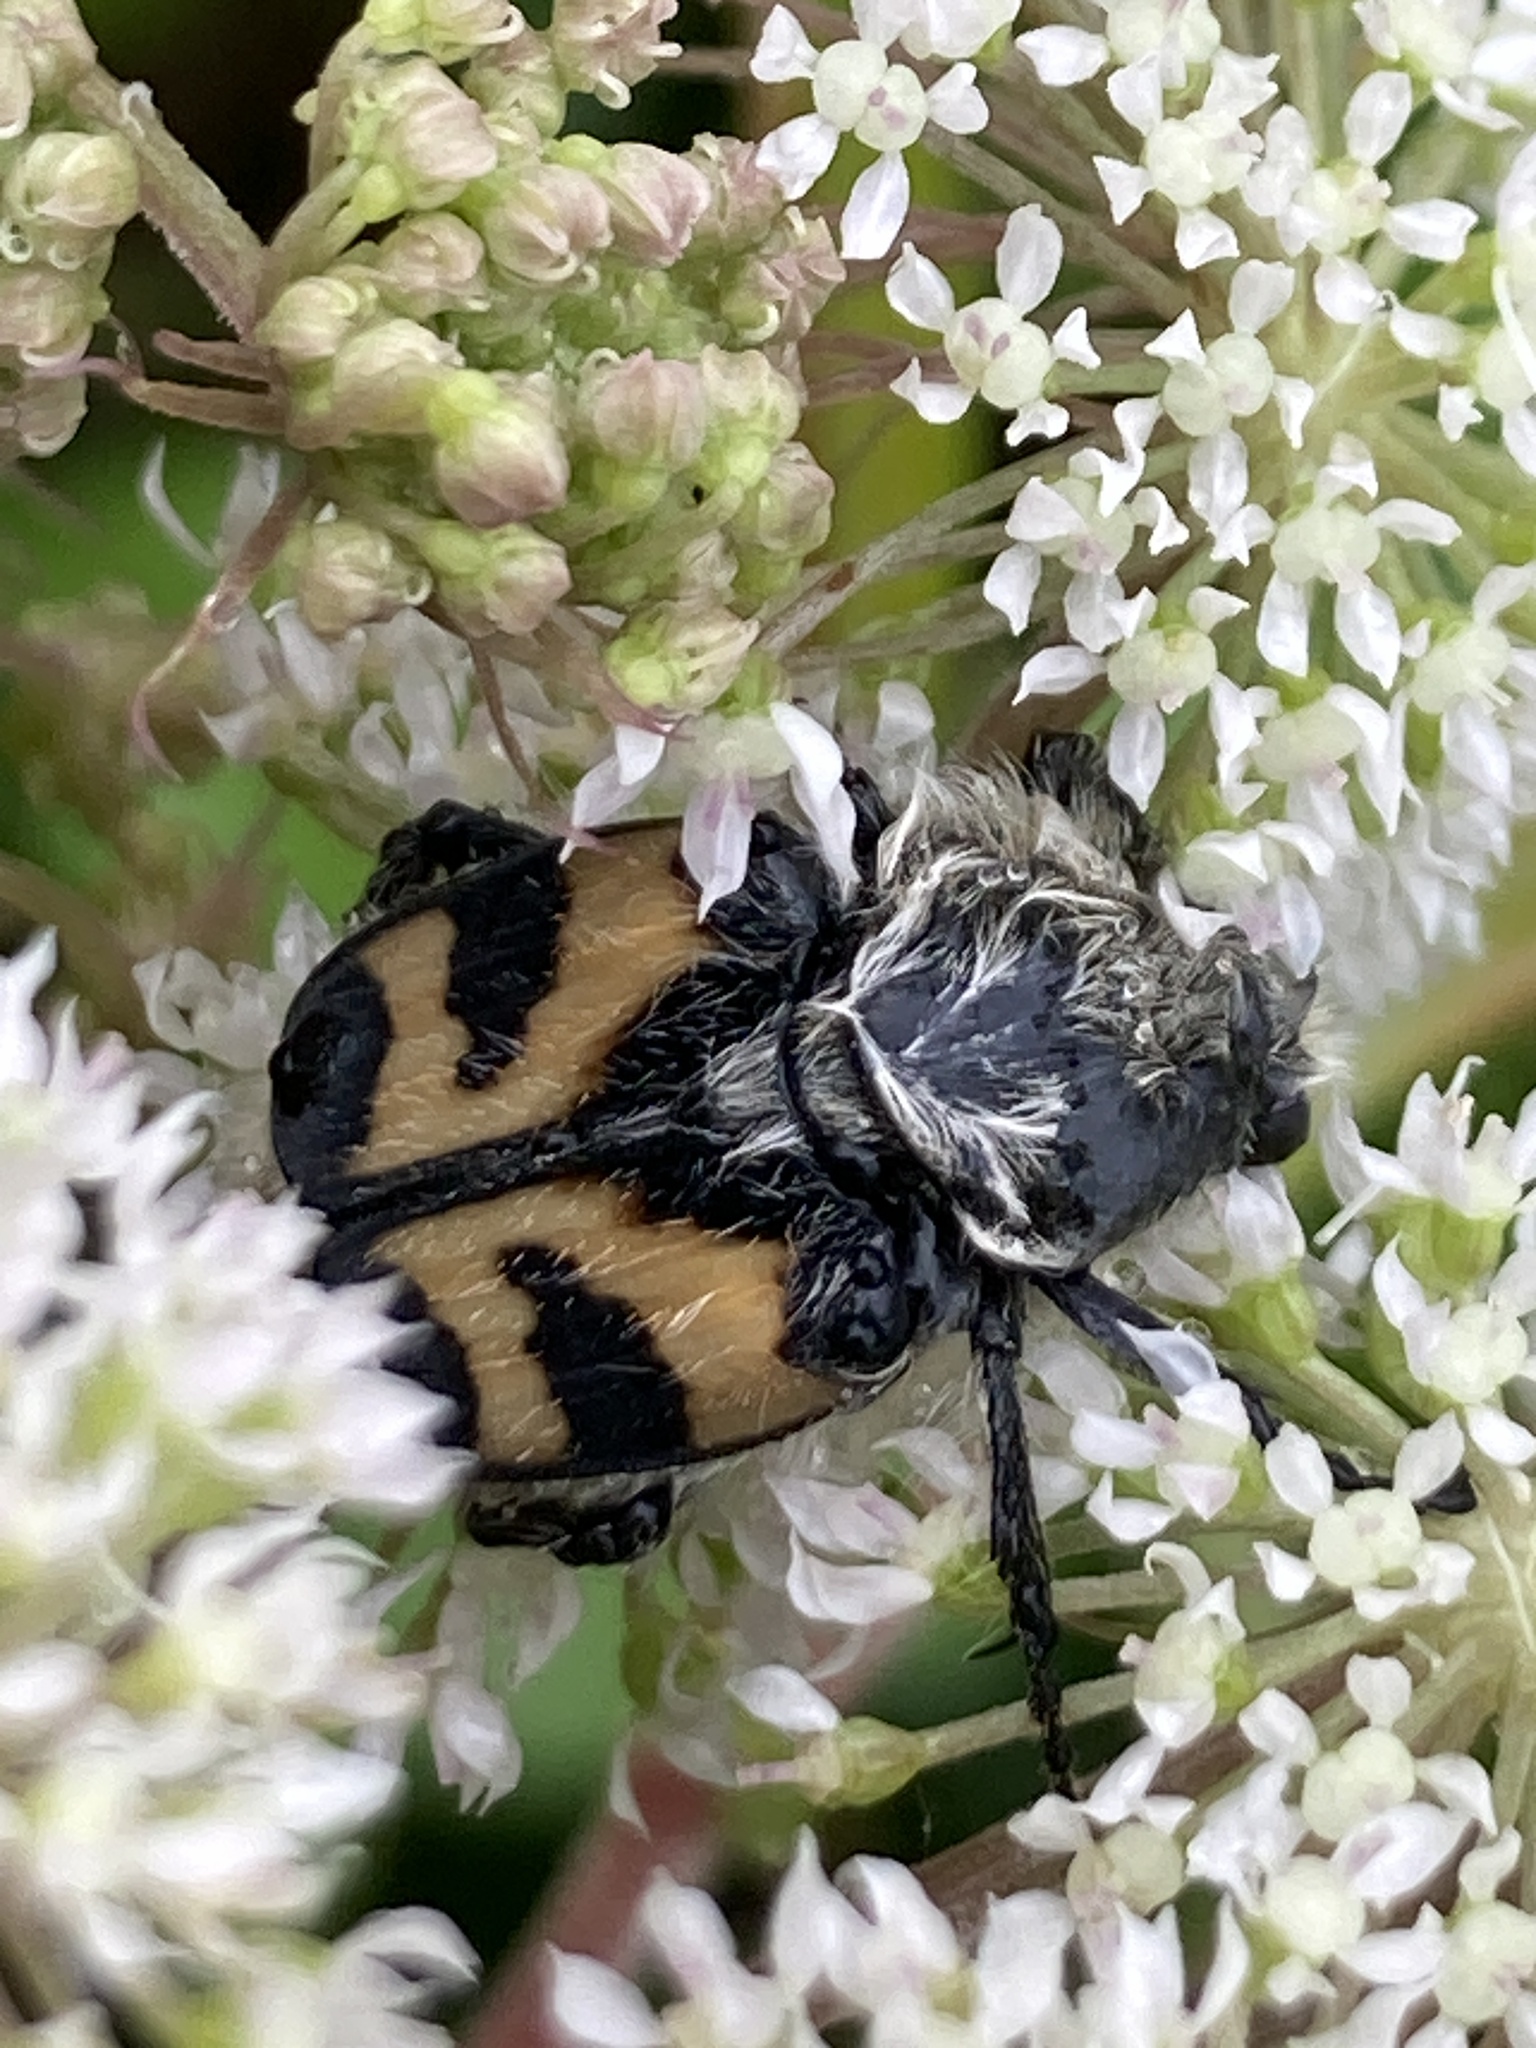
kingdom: Animalia
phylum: Arthropoda
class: Insecta
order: Coleoptera
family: Scarabaeidae
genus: Trichius
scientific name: Trichius fasciatus
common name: Bee beetle
